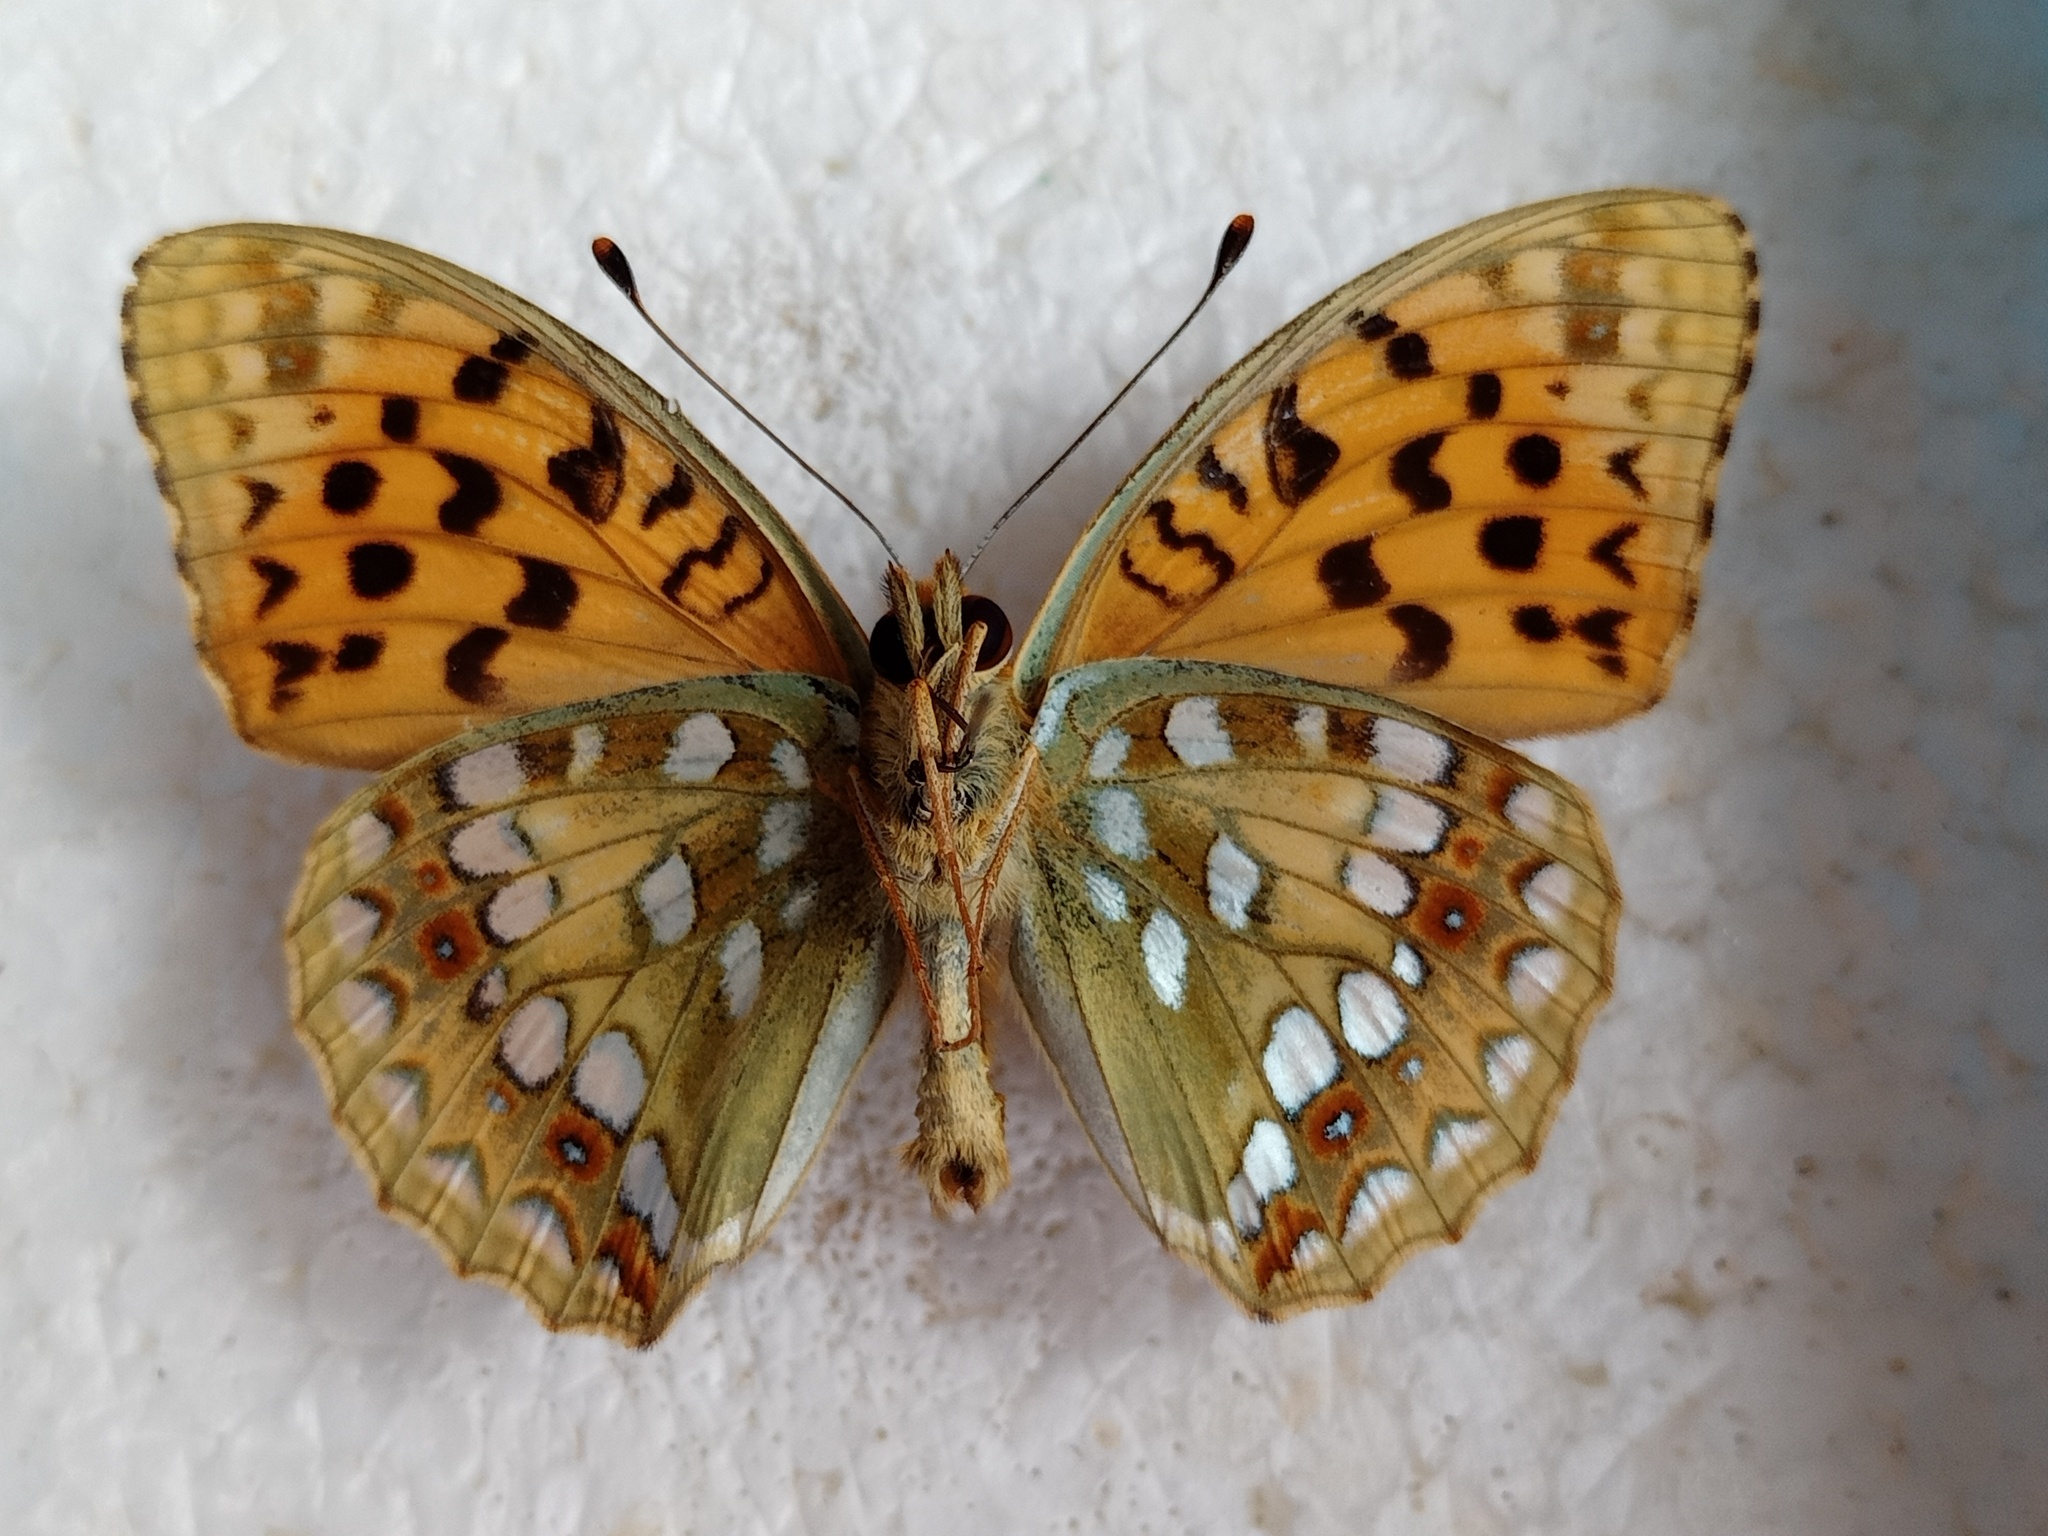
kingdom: Animalia
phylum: Arthropoda
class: Insecta
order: Lepidoptera
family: Nymphalidae
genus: Fabriciana
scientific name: Fabriciana adippe
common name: High brown fritillary
